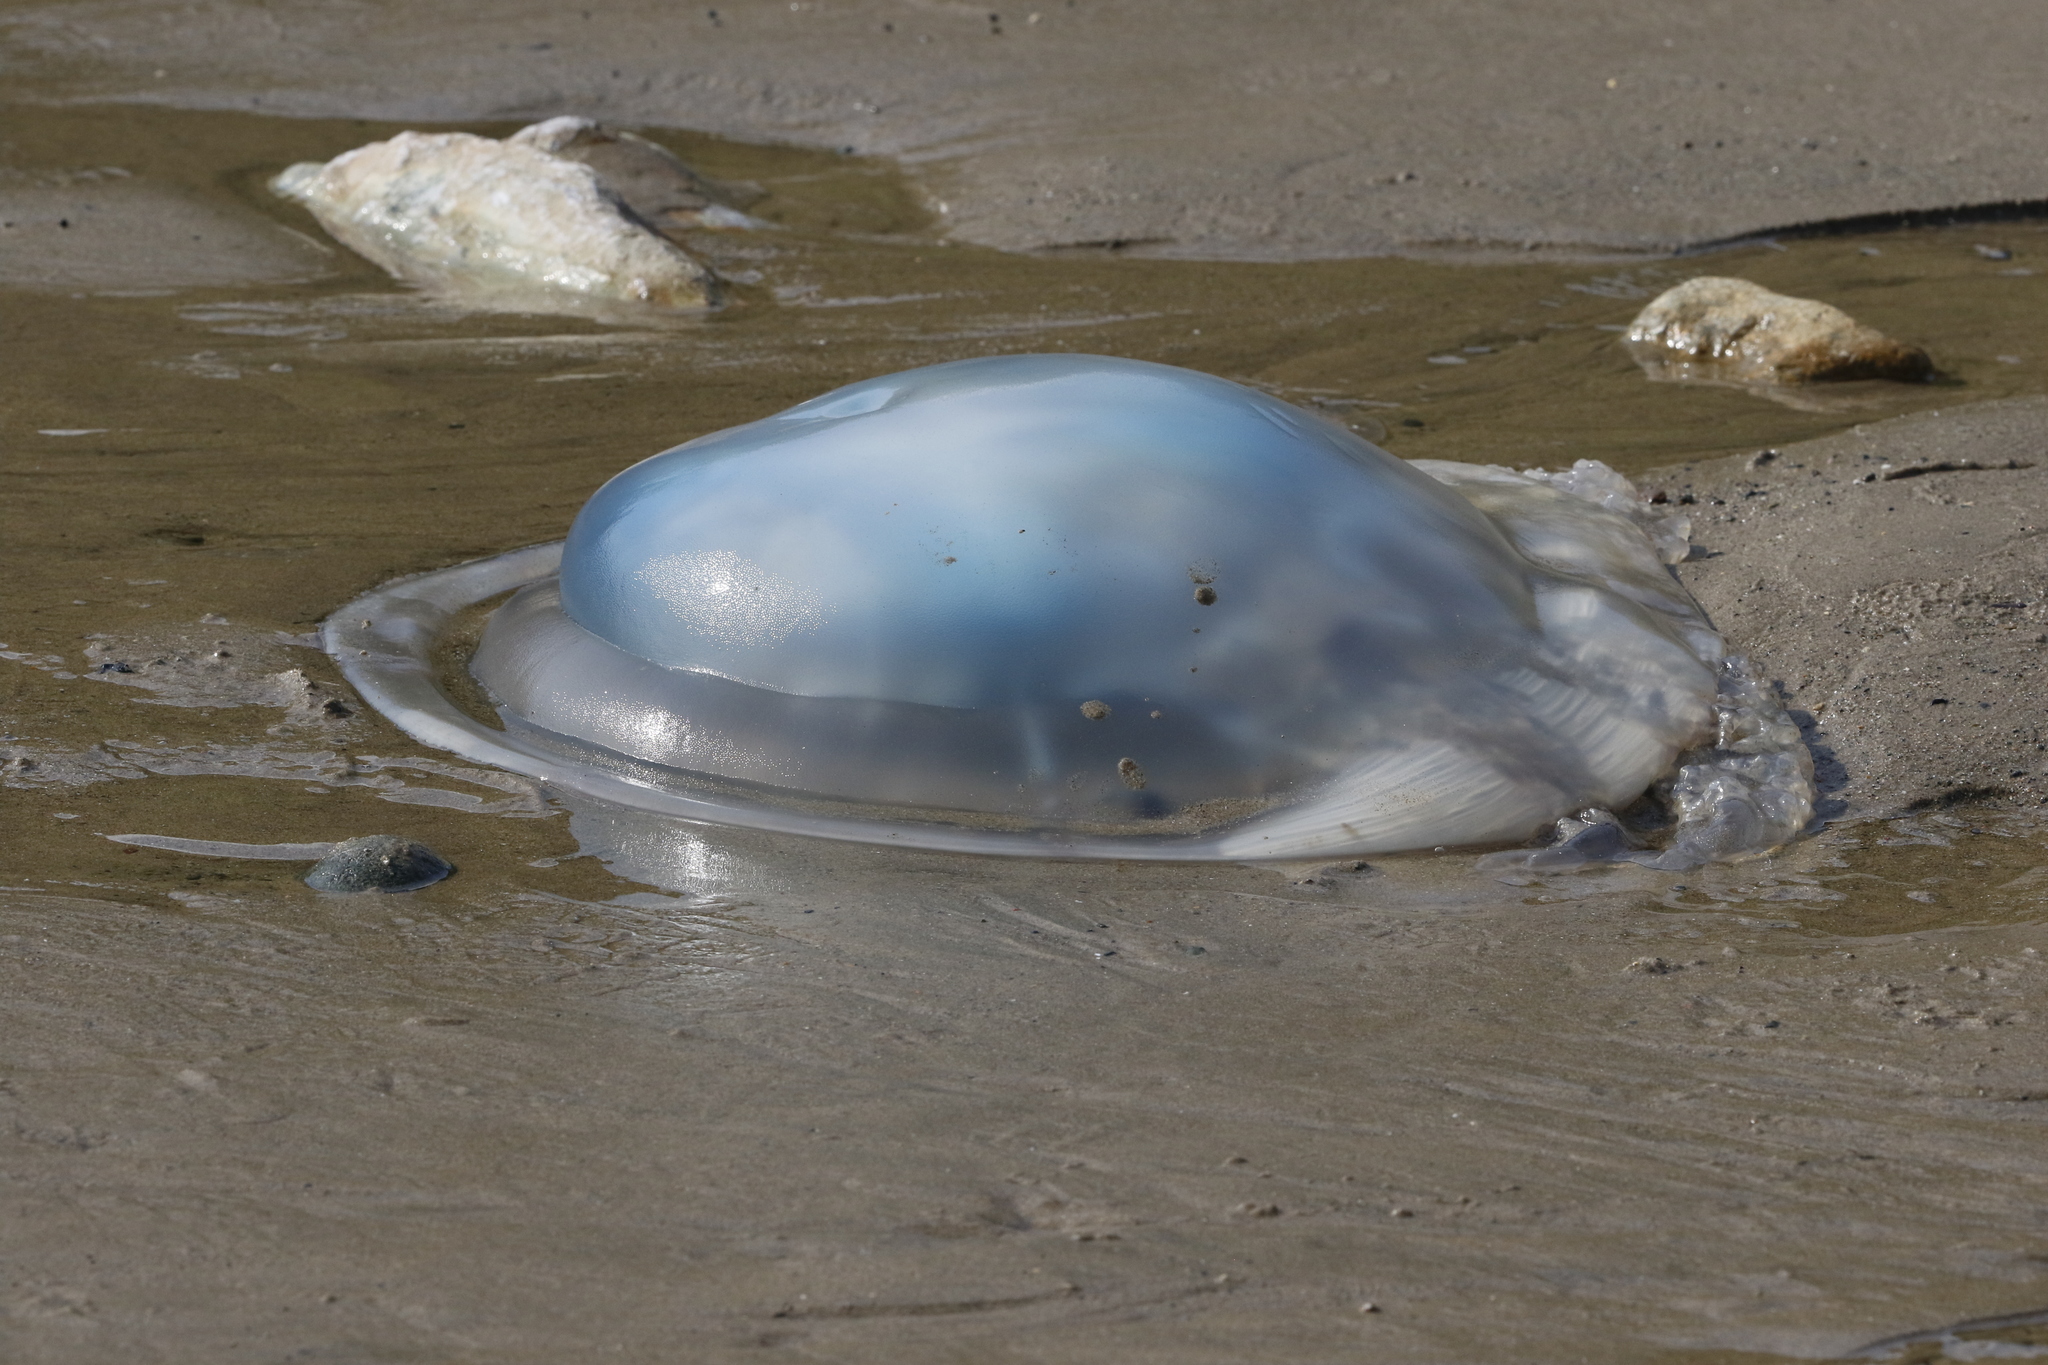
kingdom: Animalia
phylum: Cnidaria
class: Scyphozoa
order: Rhizostomeae
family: Rhizostomatidae
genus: Rhizostoma
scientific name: Rhizostoma octopus
